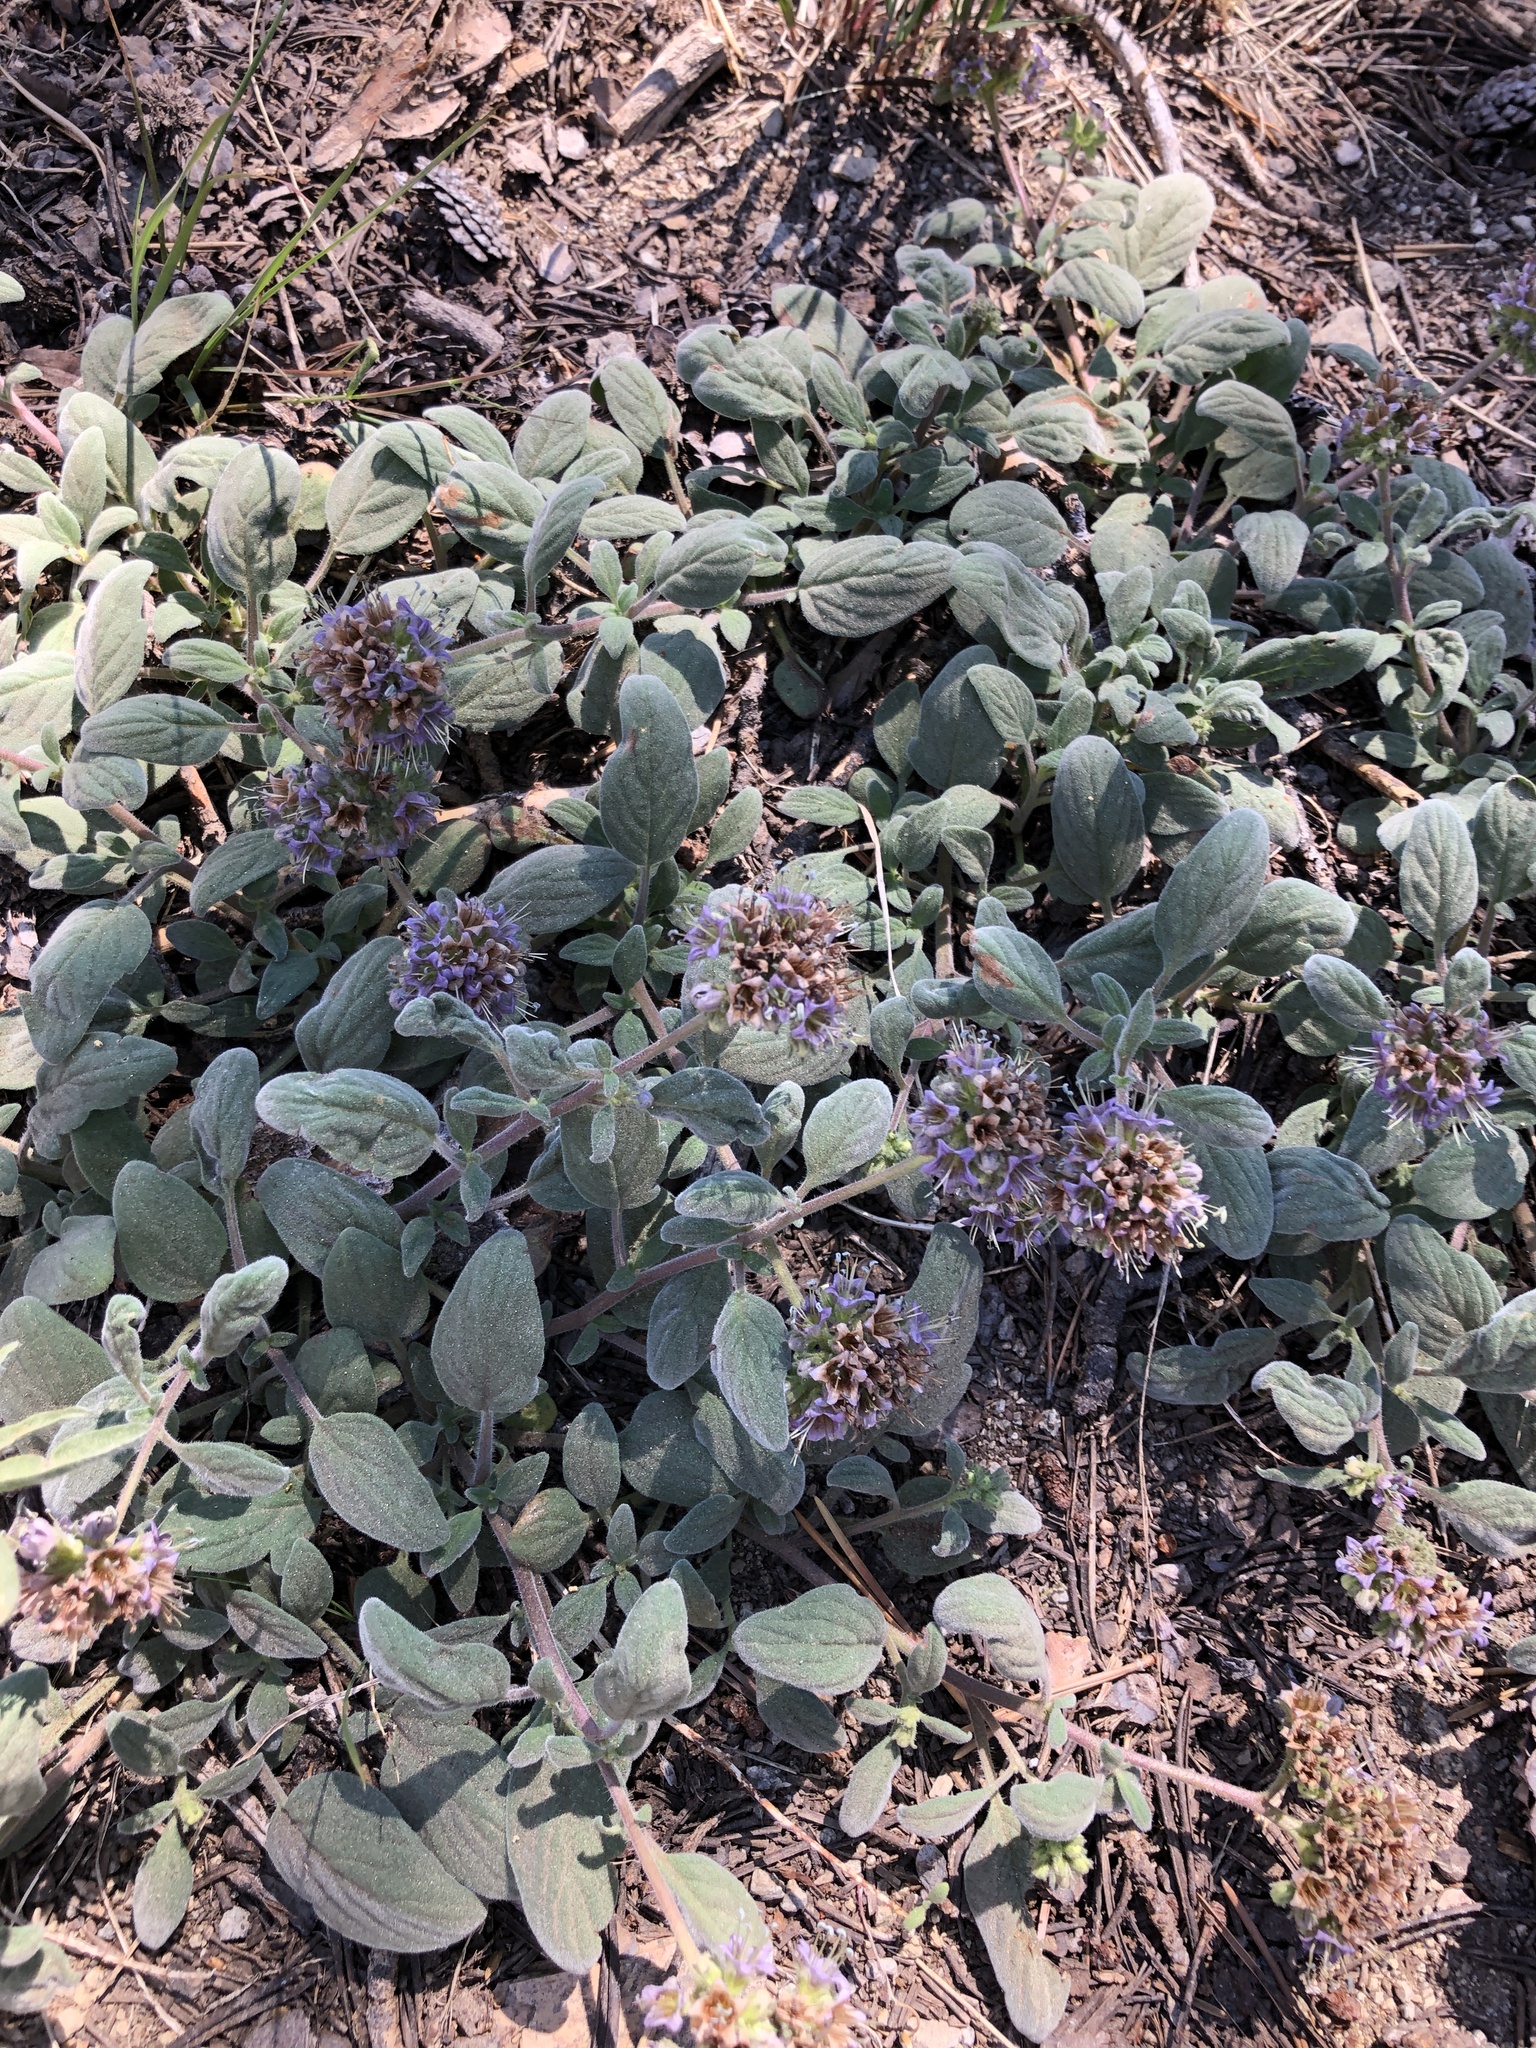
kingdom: Plantae
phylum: Tracheophyta
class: Magnoliopsida
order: Boraginales
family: Hydrophyllaceae
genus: Phacelia
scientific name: Phacelia hydrophylloides
